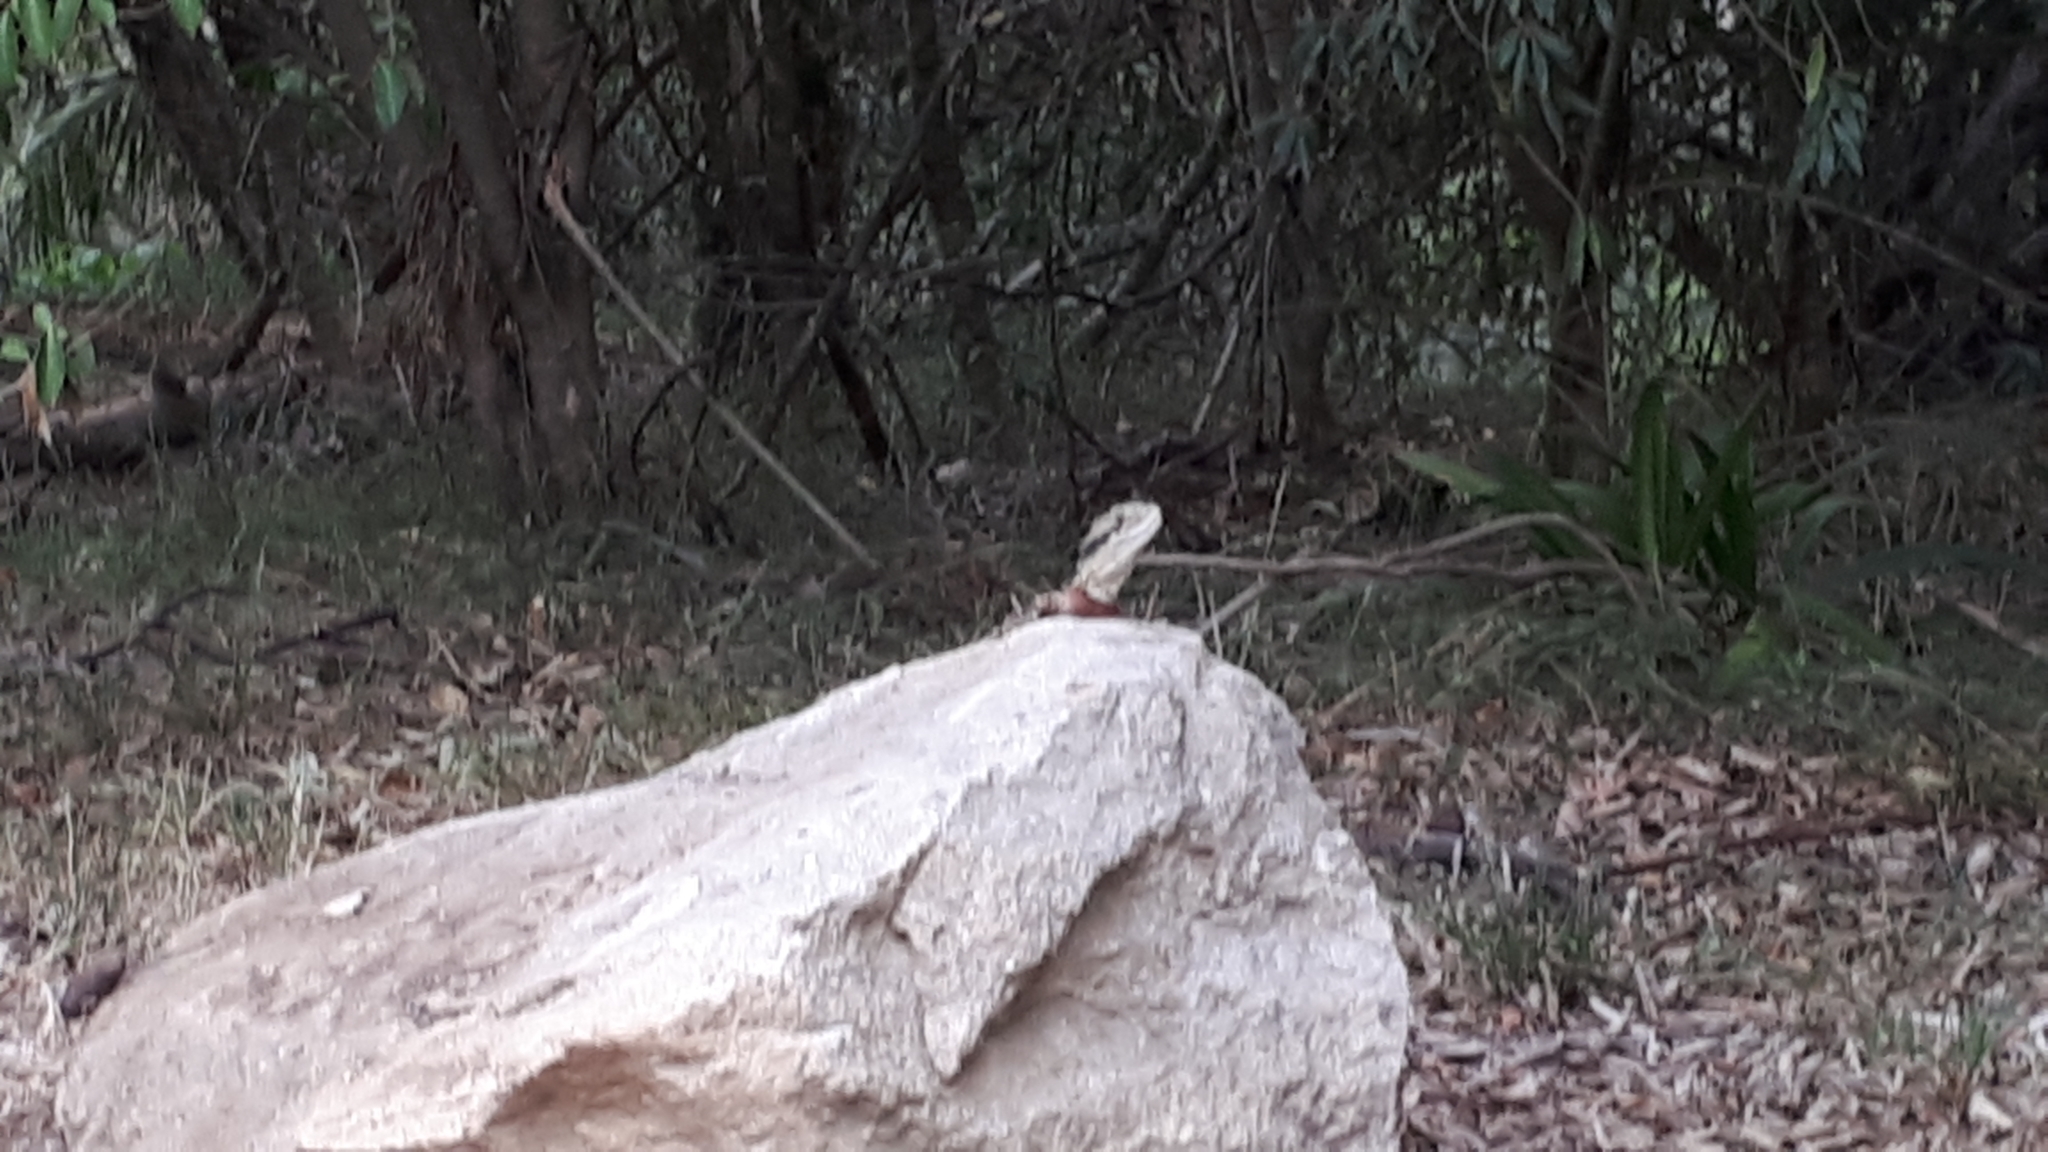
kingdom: Animalia
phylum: Chordata
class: Squamata
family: Agamidae
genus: Intellagama
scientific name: Intellagama lesueurii
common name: Eastern water dragon
